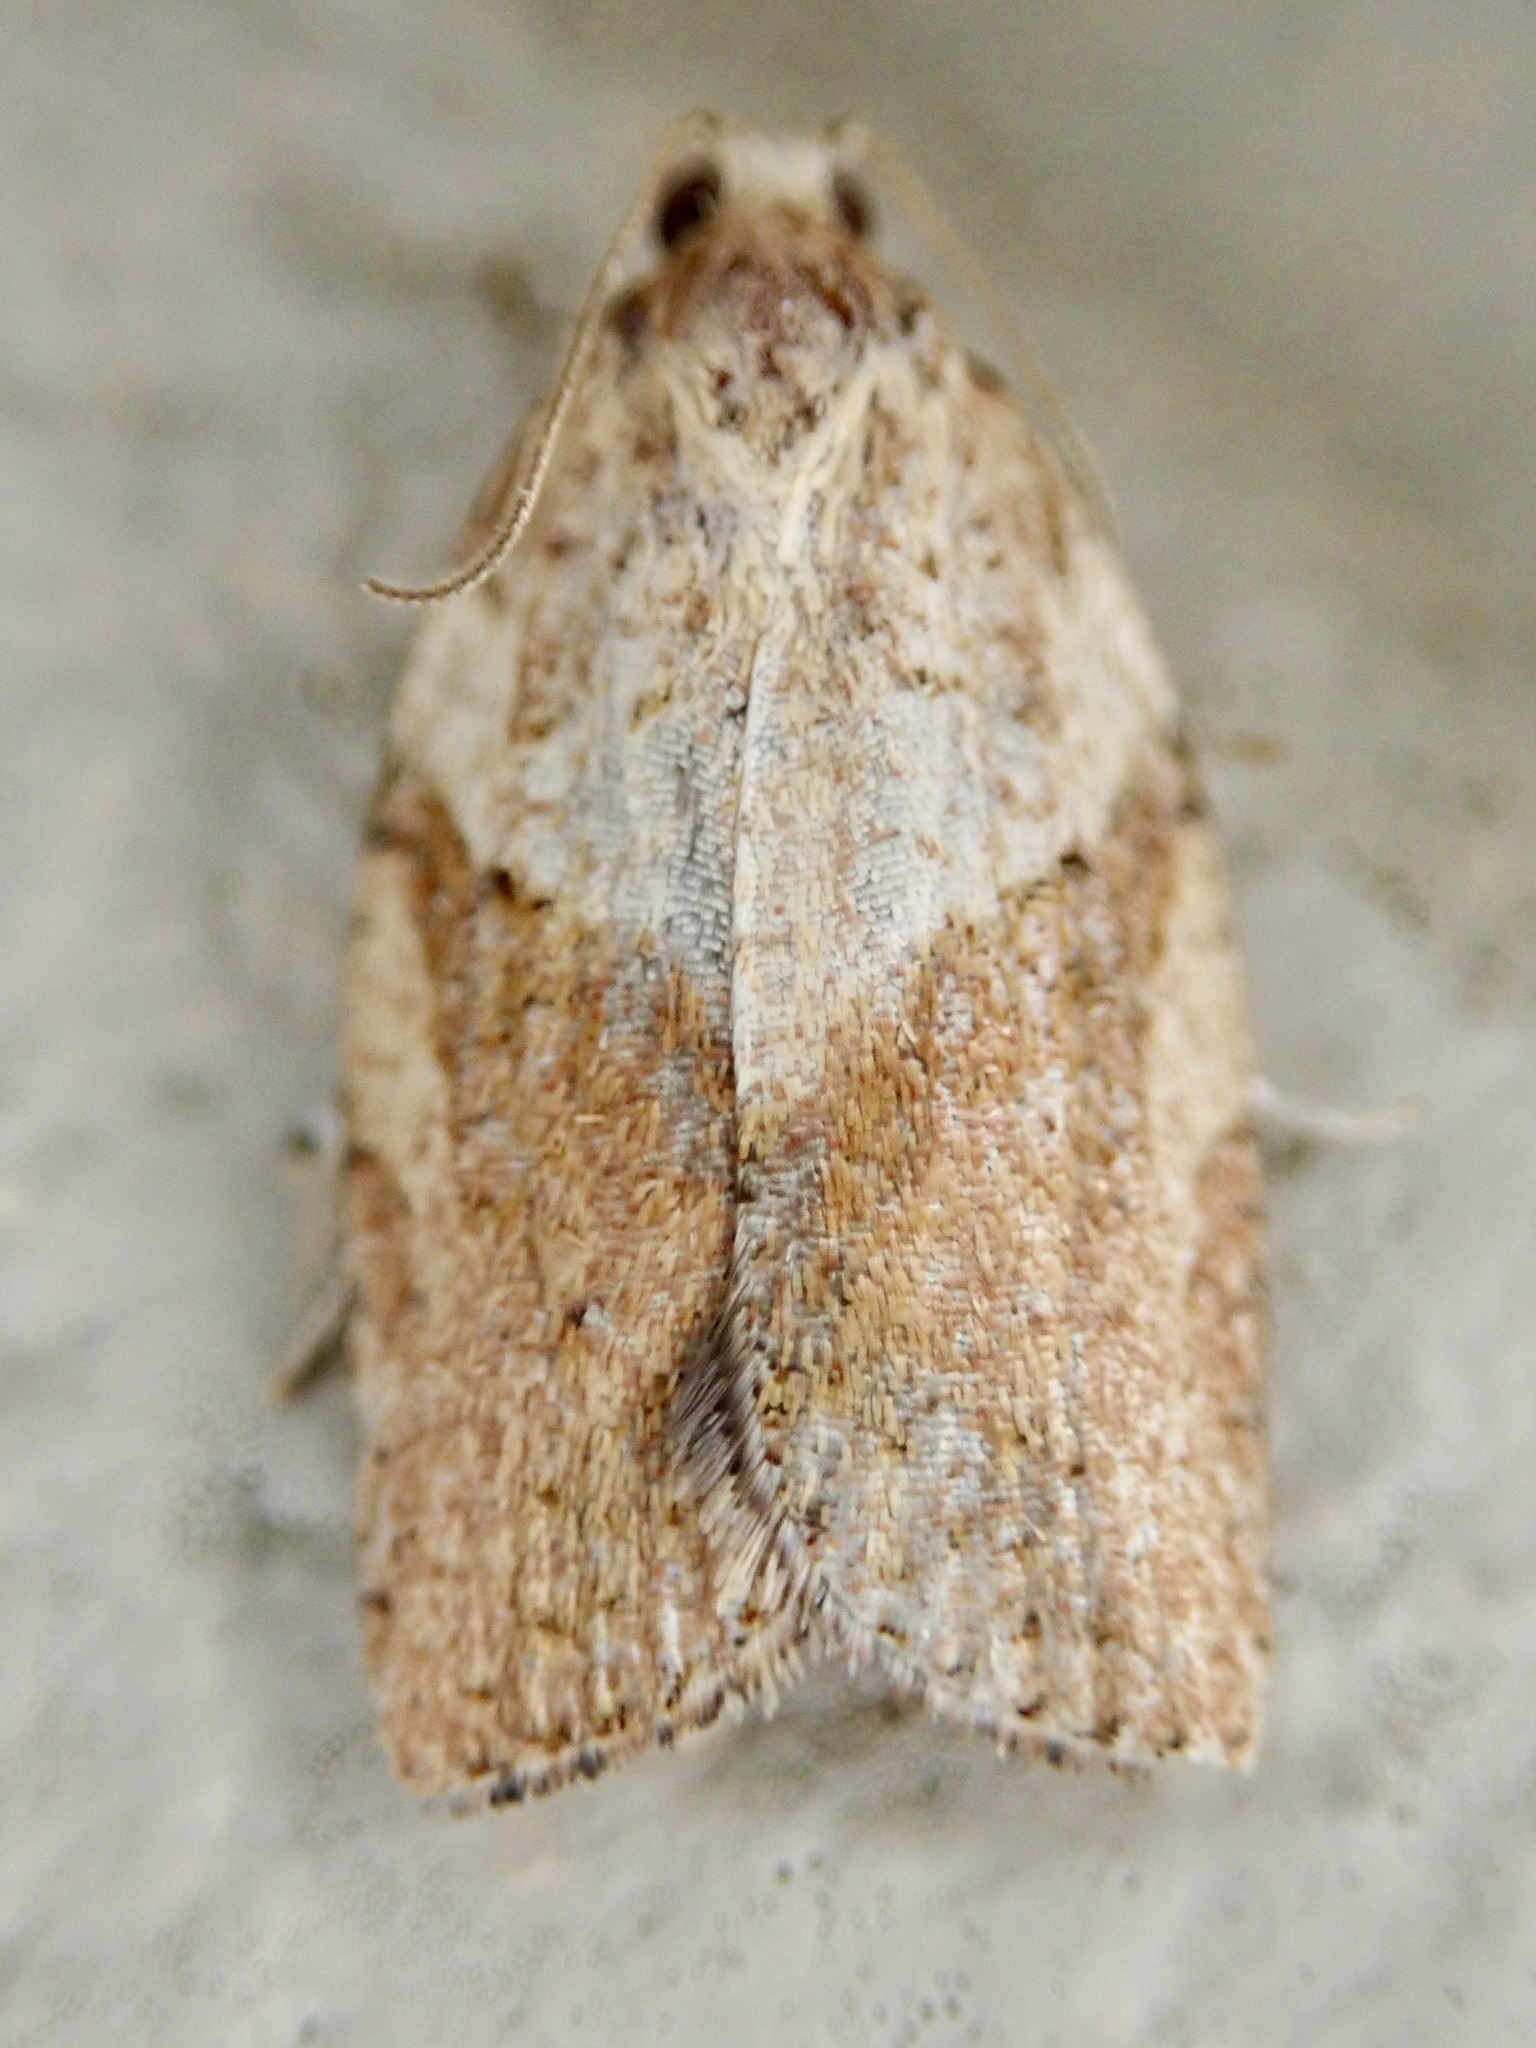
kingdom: Animalia
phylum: Arthropoda
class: Insecta
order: Lepidoptera
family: Tortricidae
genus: Epiphyas
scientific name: Epiphyas postvittana
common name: Light brown apple moth
